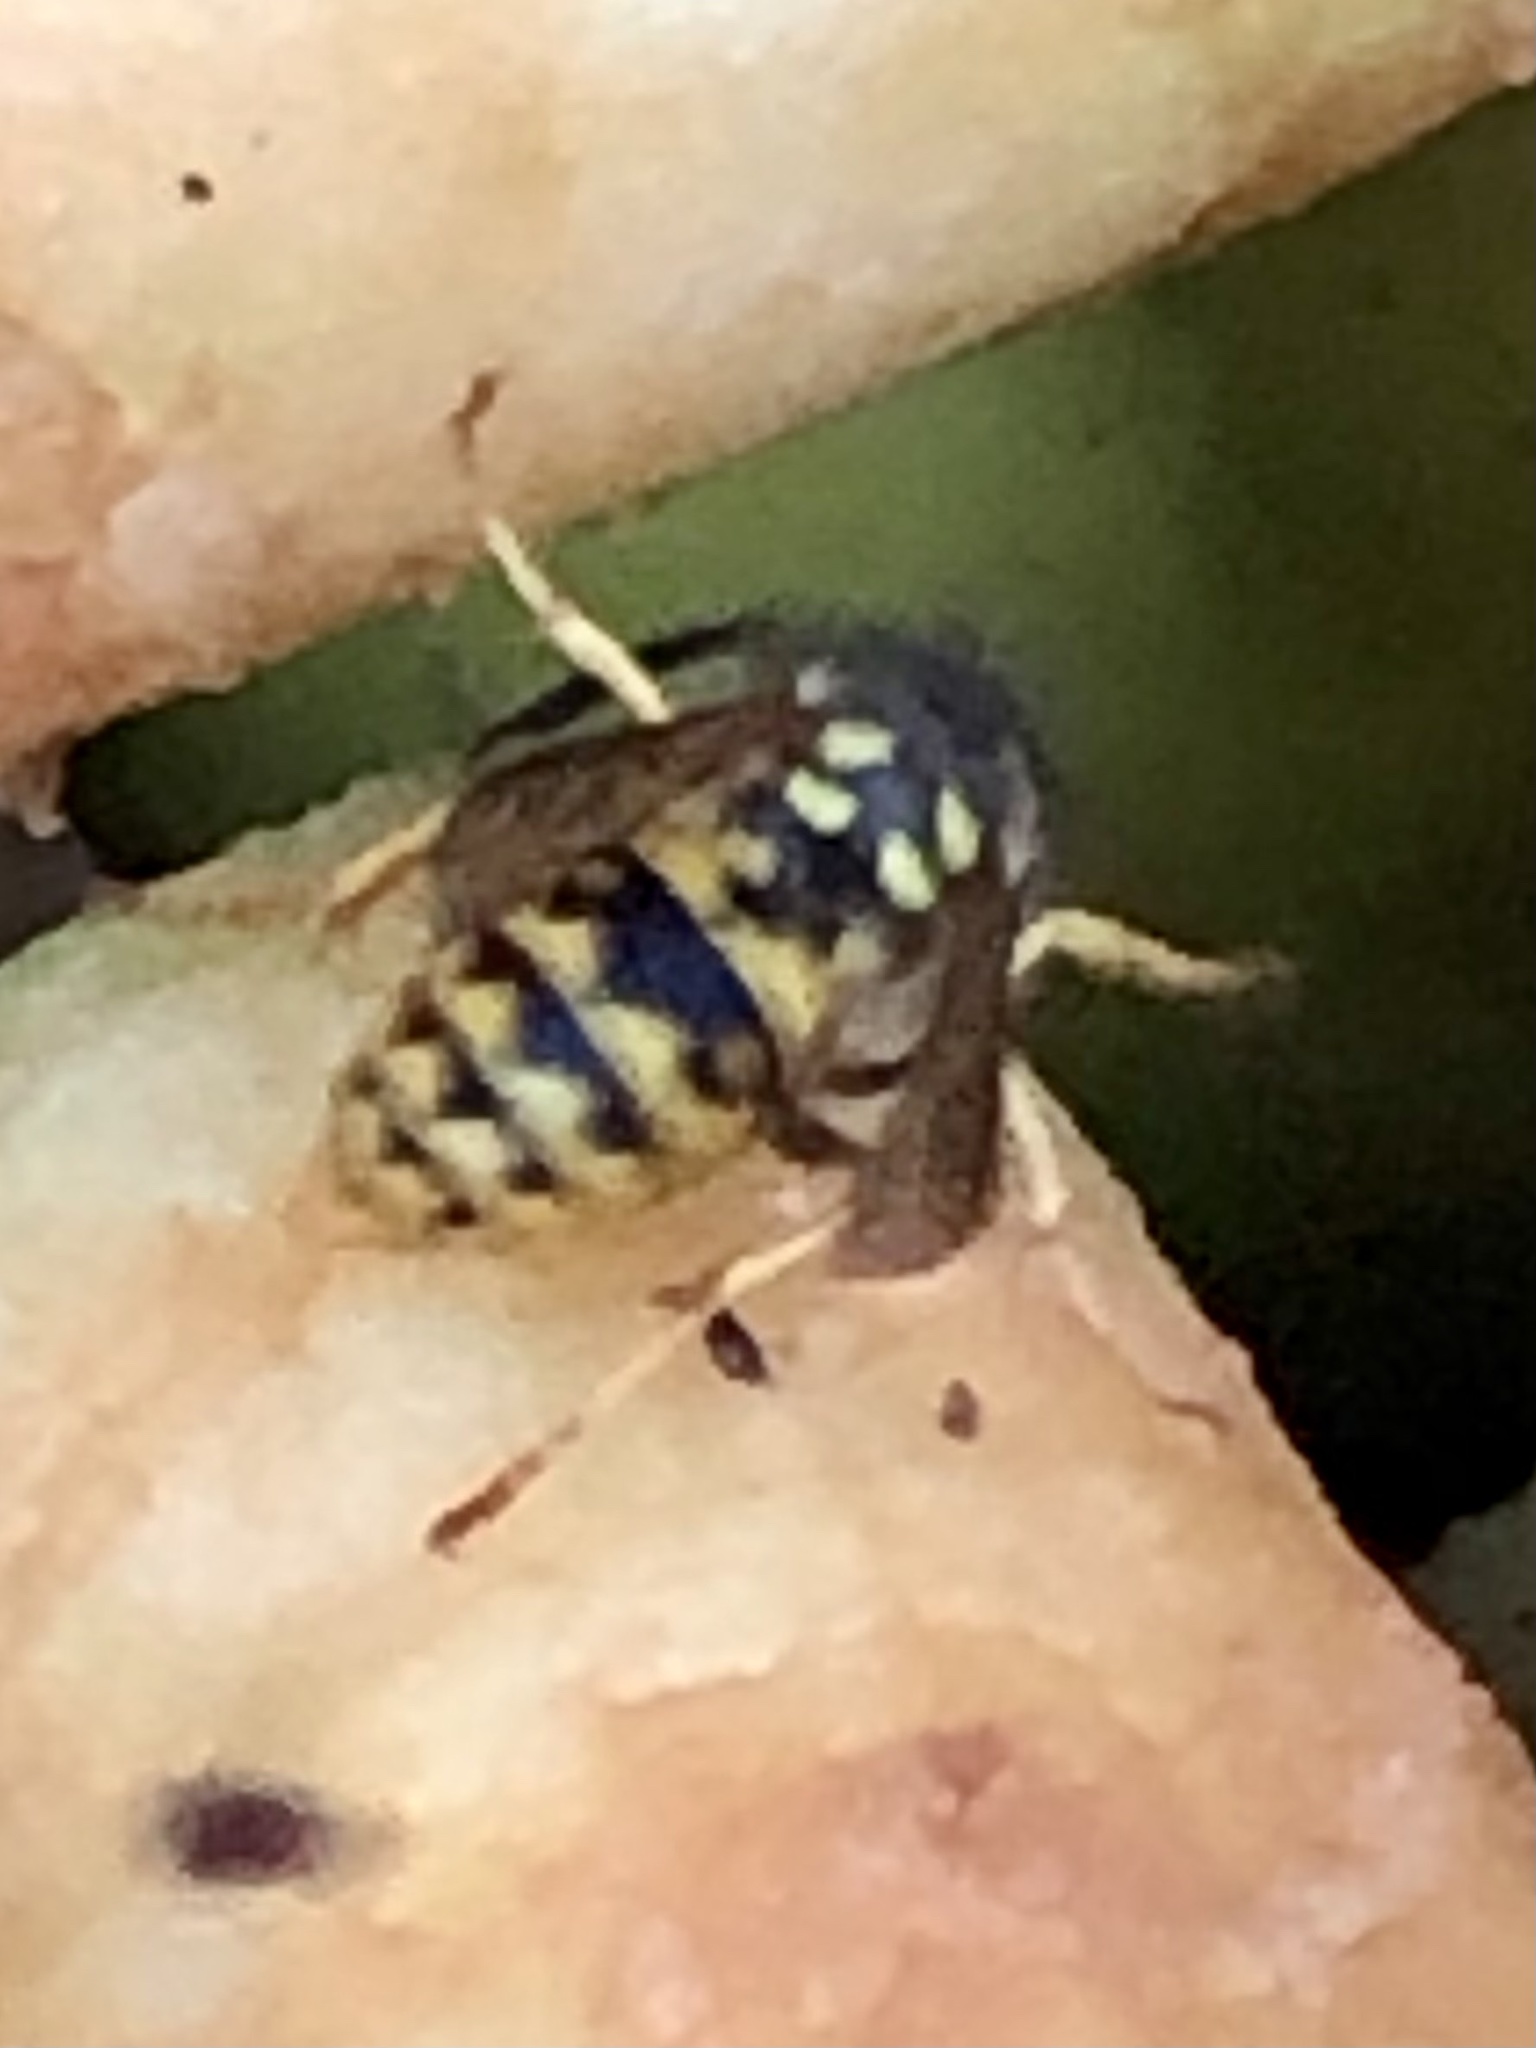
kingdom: Animalia
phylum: Arthropoda
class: Insecta
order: Hymenoptera
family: Vespidae
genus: Vespula
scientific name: Vespula germanica
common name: German wasp
